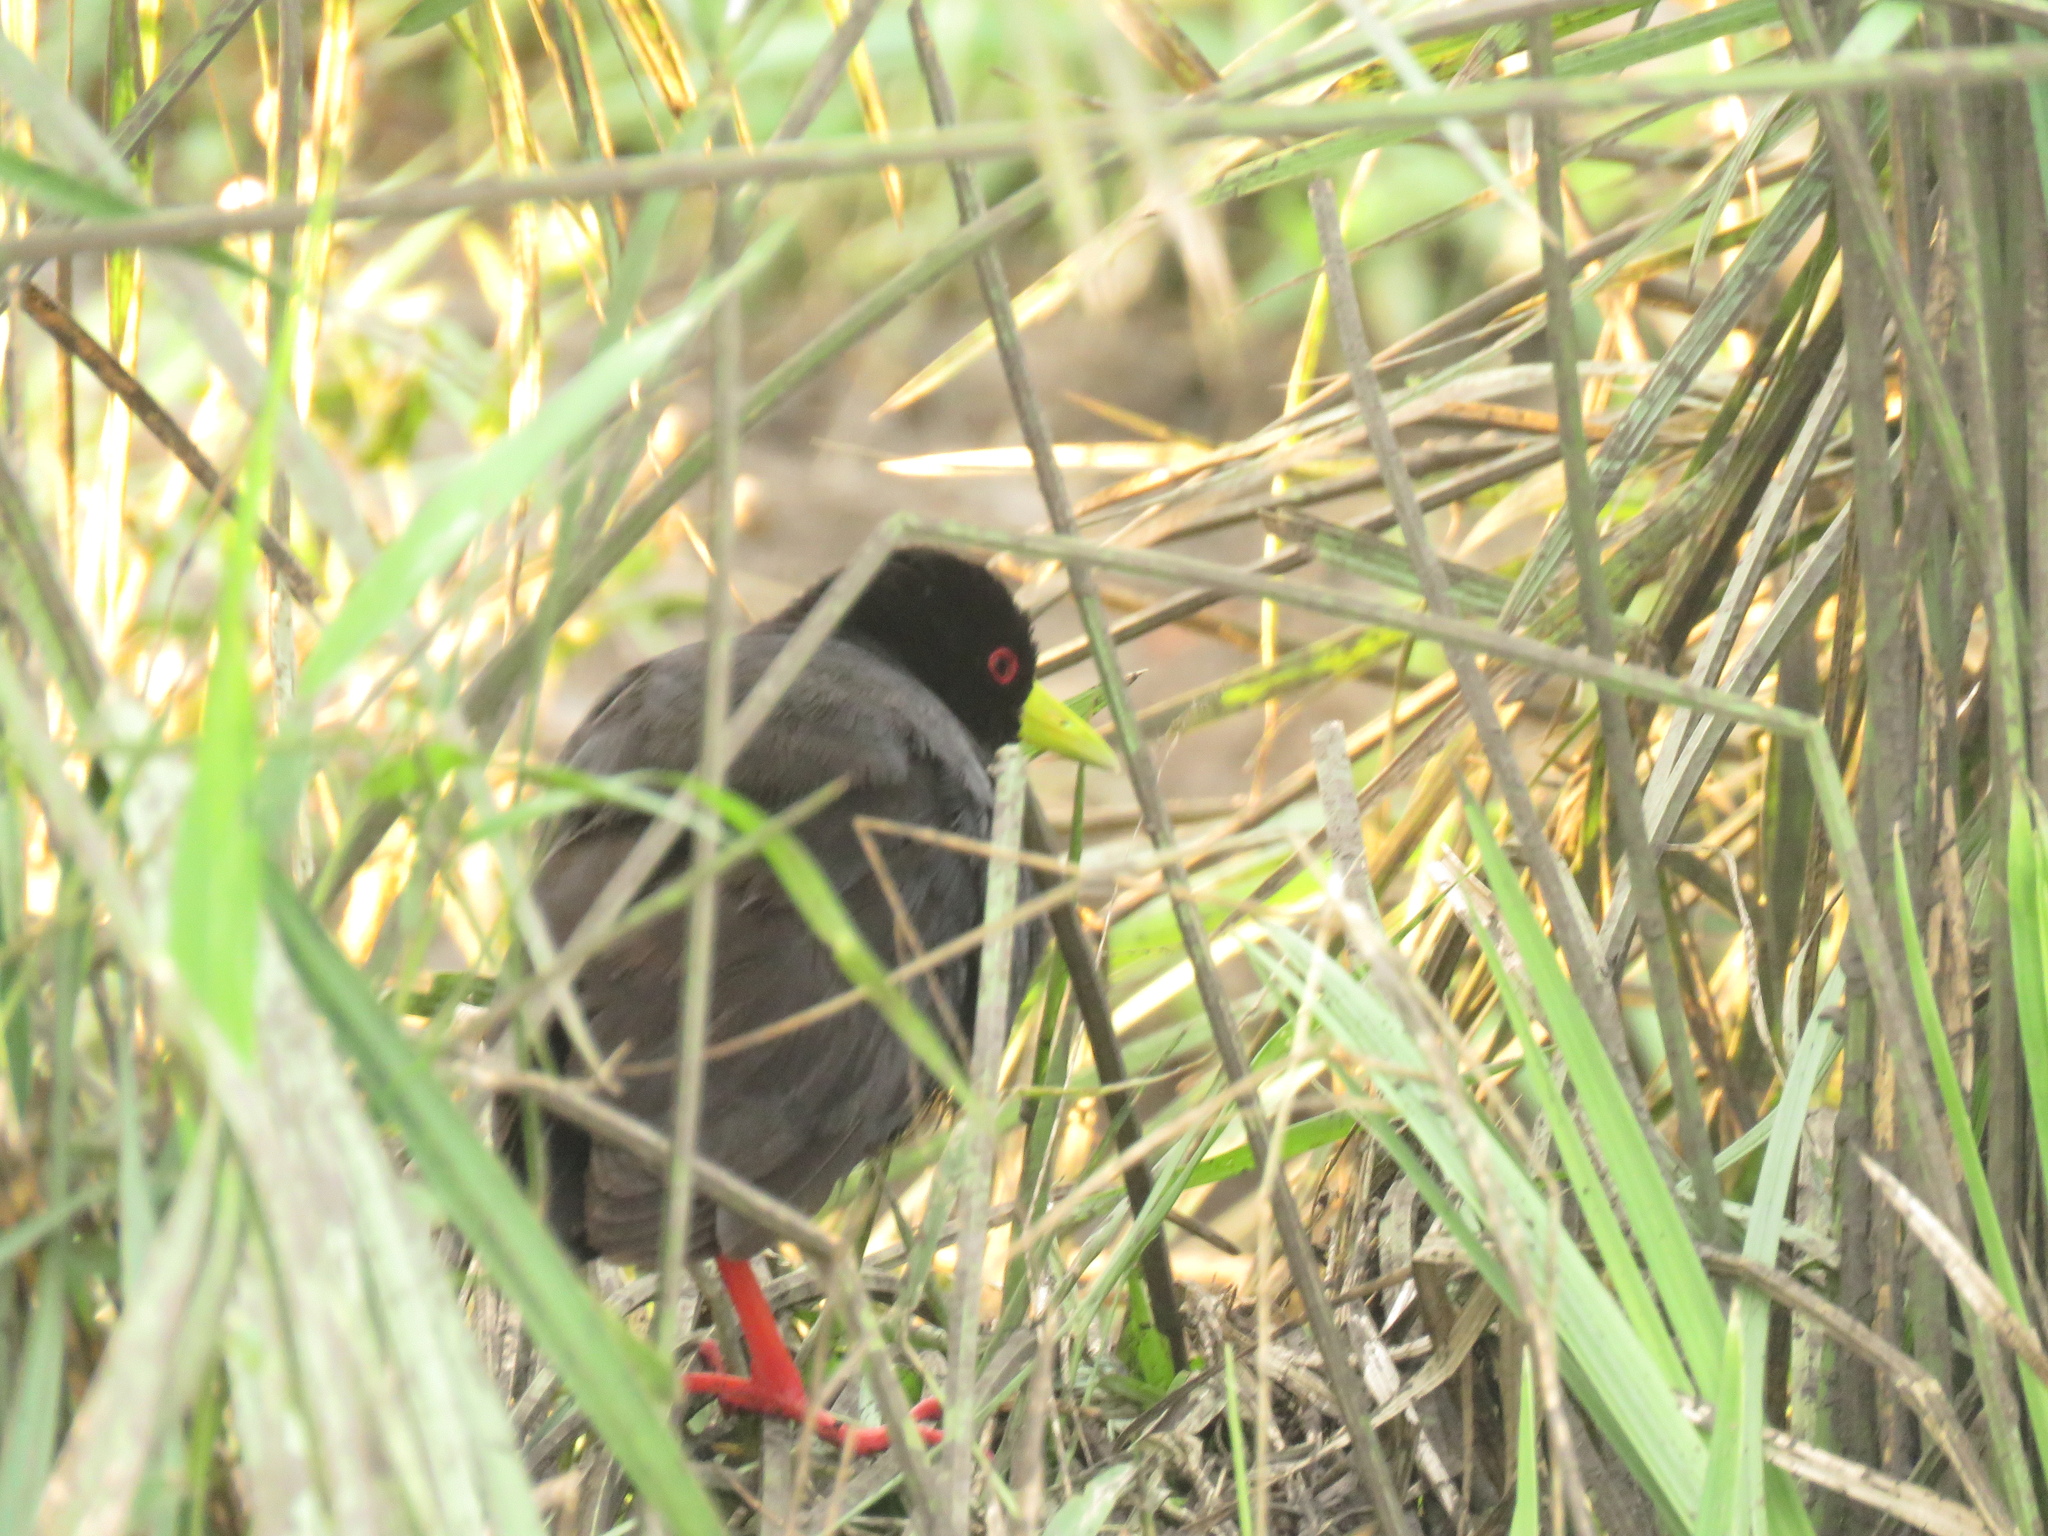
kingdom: Animalia
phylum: Chordata
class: Aves
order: Gruiformes
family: Rallidae
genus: Amaurornis
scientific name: Amaurornis flavirostra
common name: Black crake
